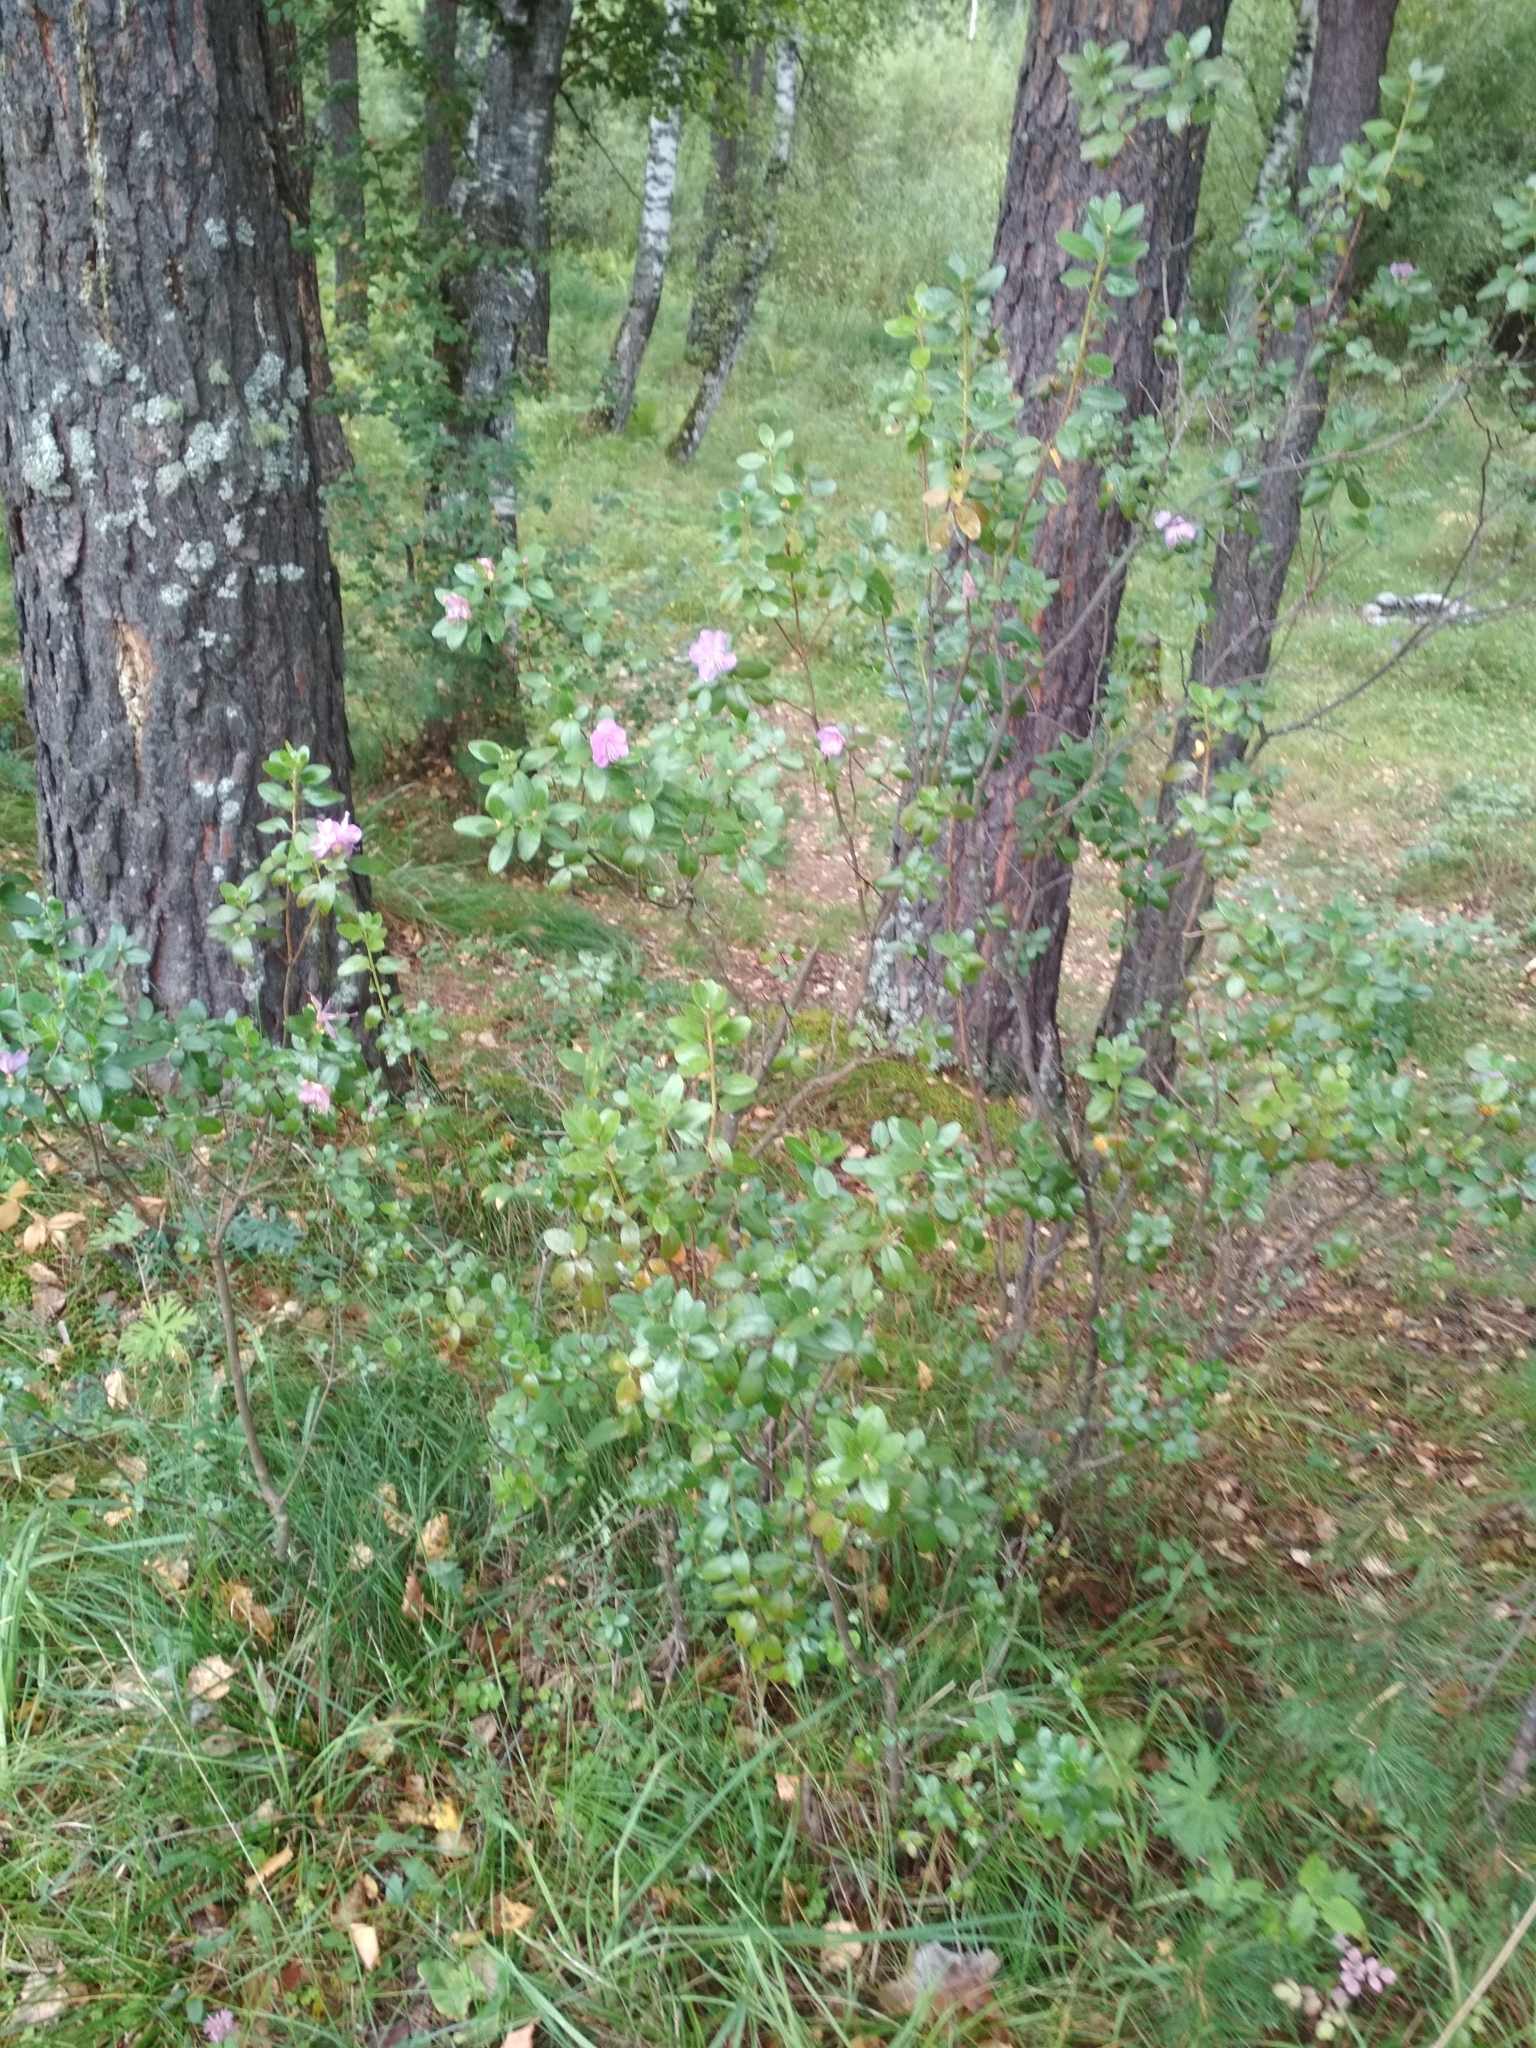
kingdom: Plantae
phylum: Tracheophyta
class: Magnoliopsida
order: Ericales
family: Ericaceae
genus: Rhododendron
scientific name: Rhododendron dauricum
